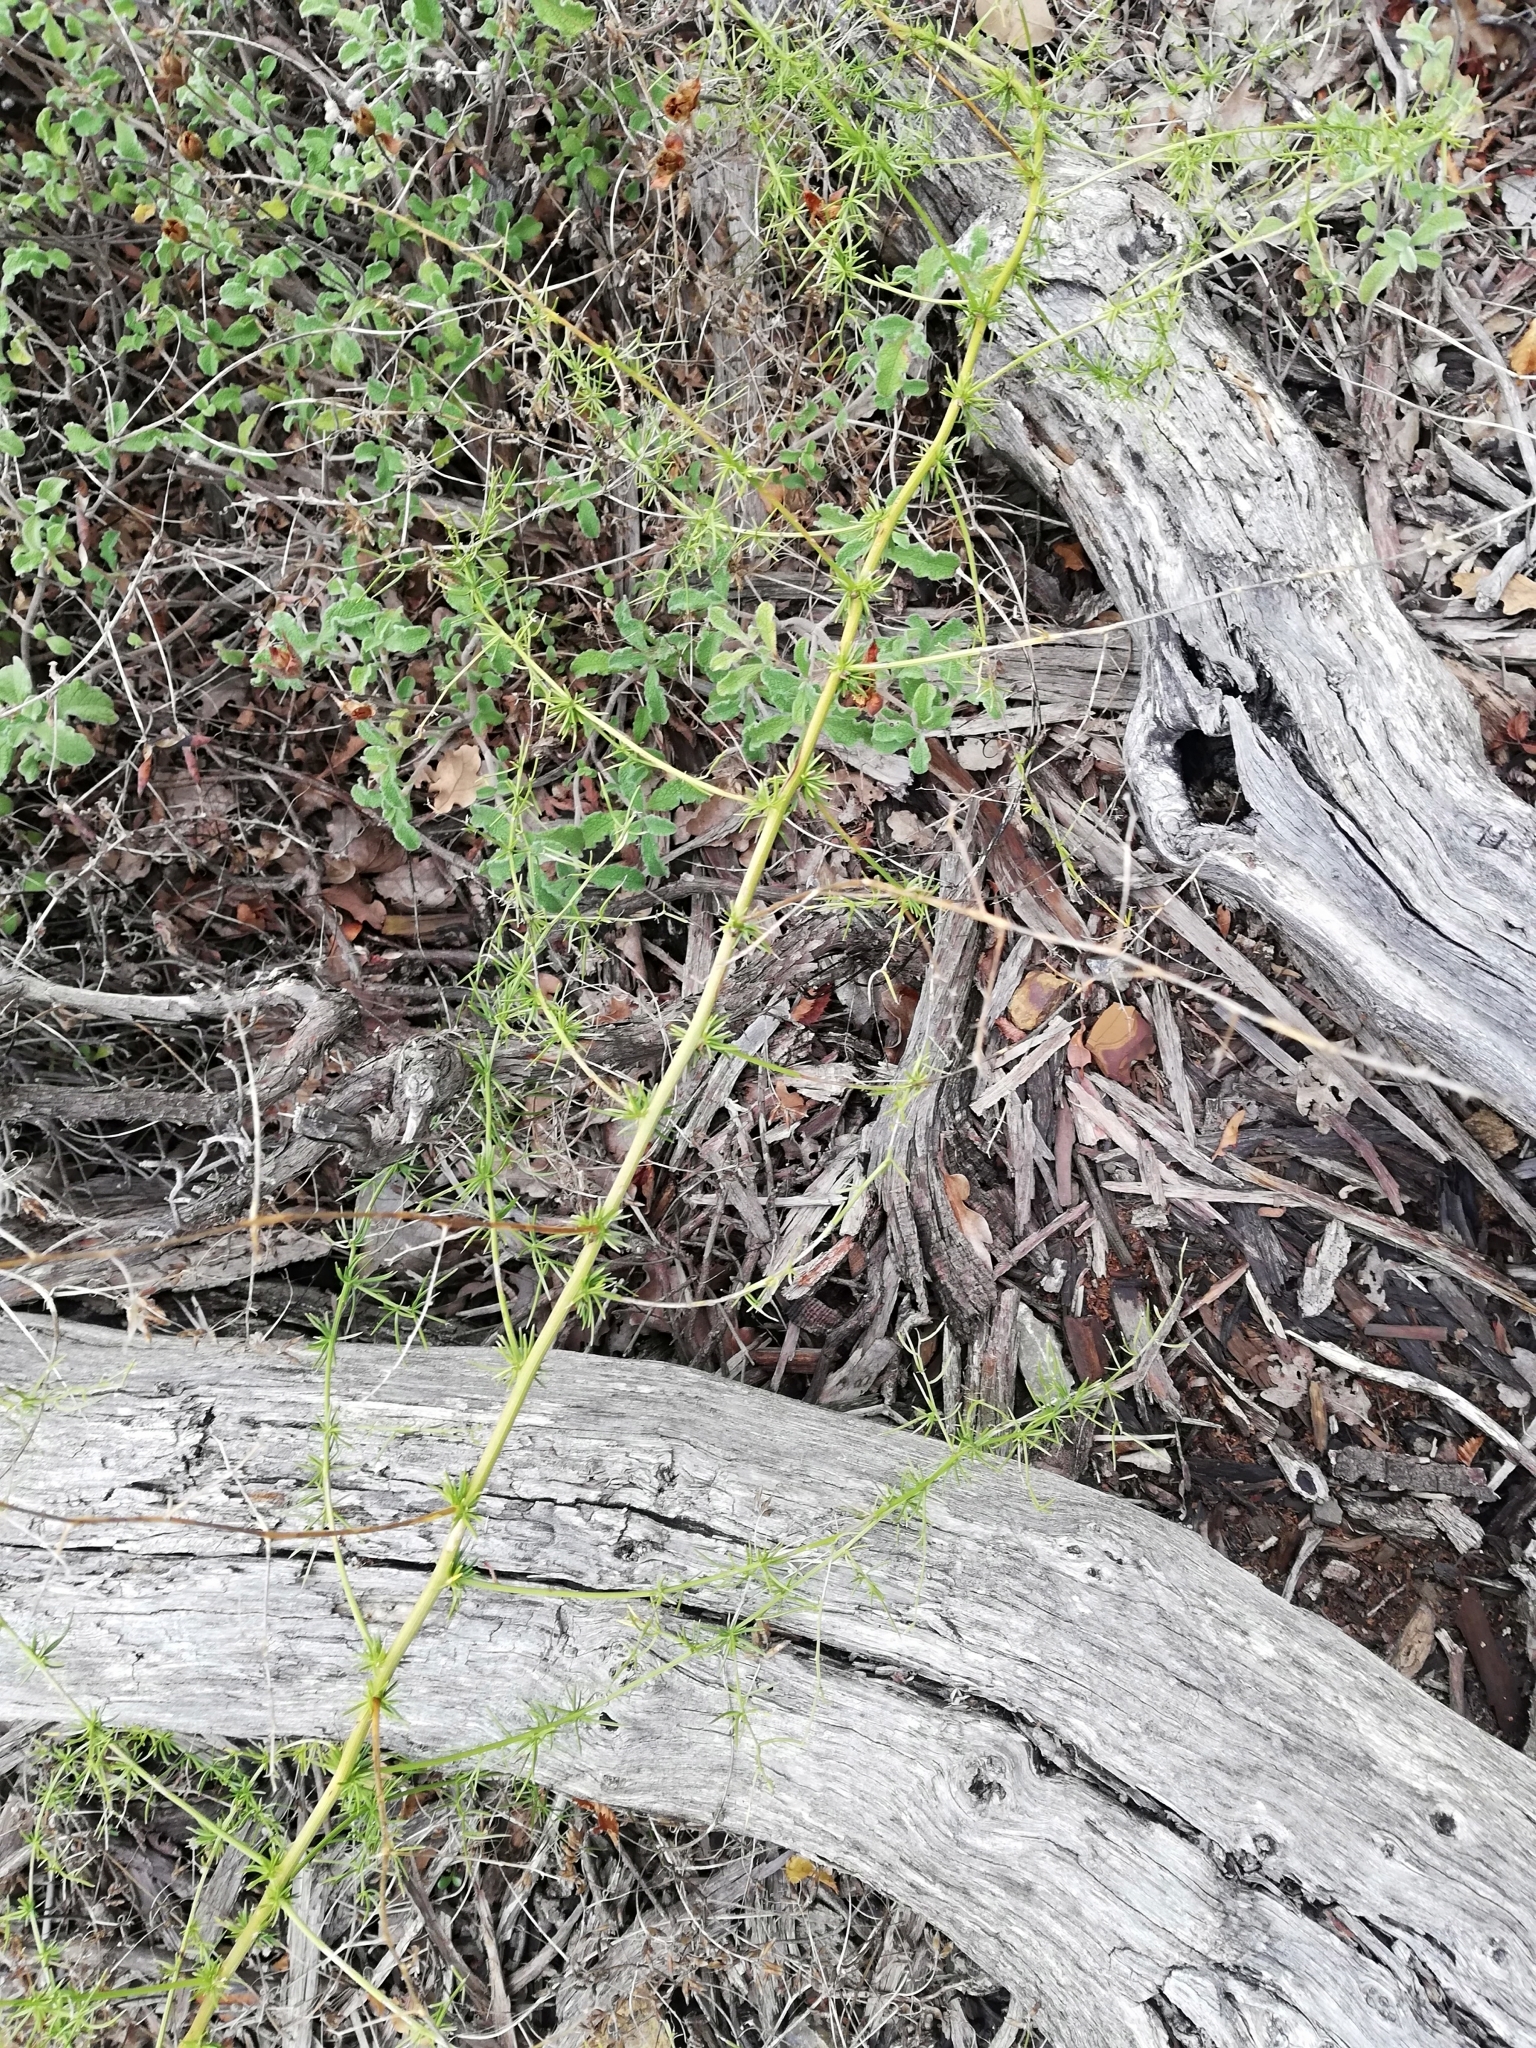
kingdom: Plantae
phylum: Tracheophyta
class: Liliopsida
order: Asparagales
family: Asparagaceae
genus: Asparagus
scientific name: Asparagus verticillatus
